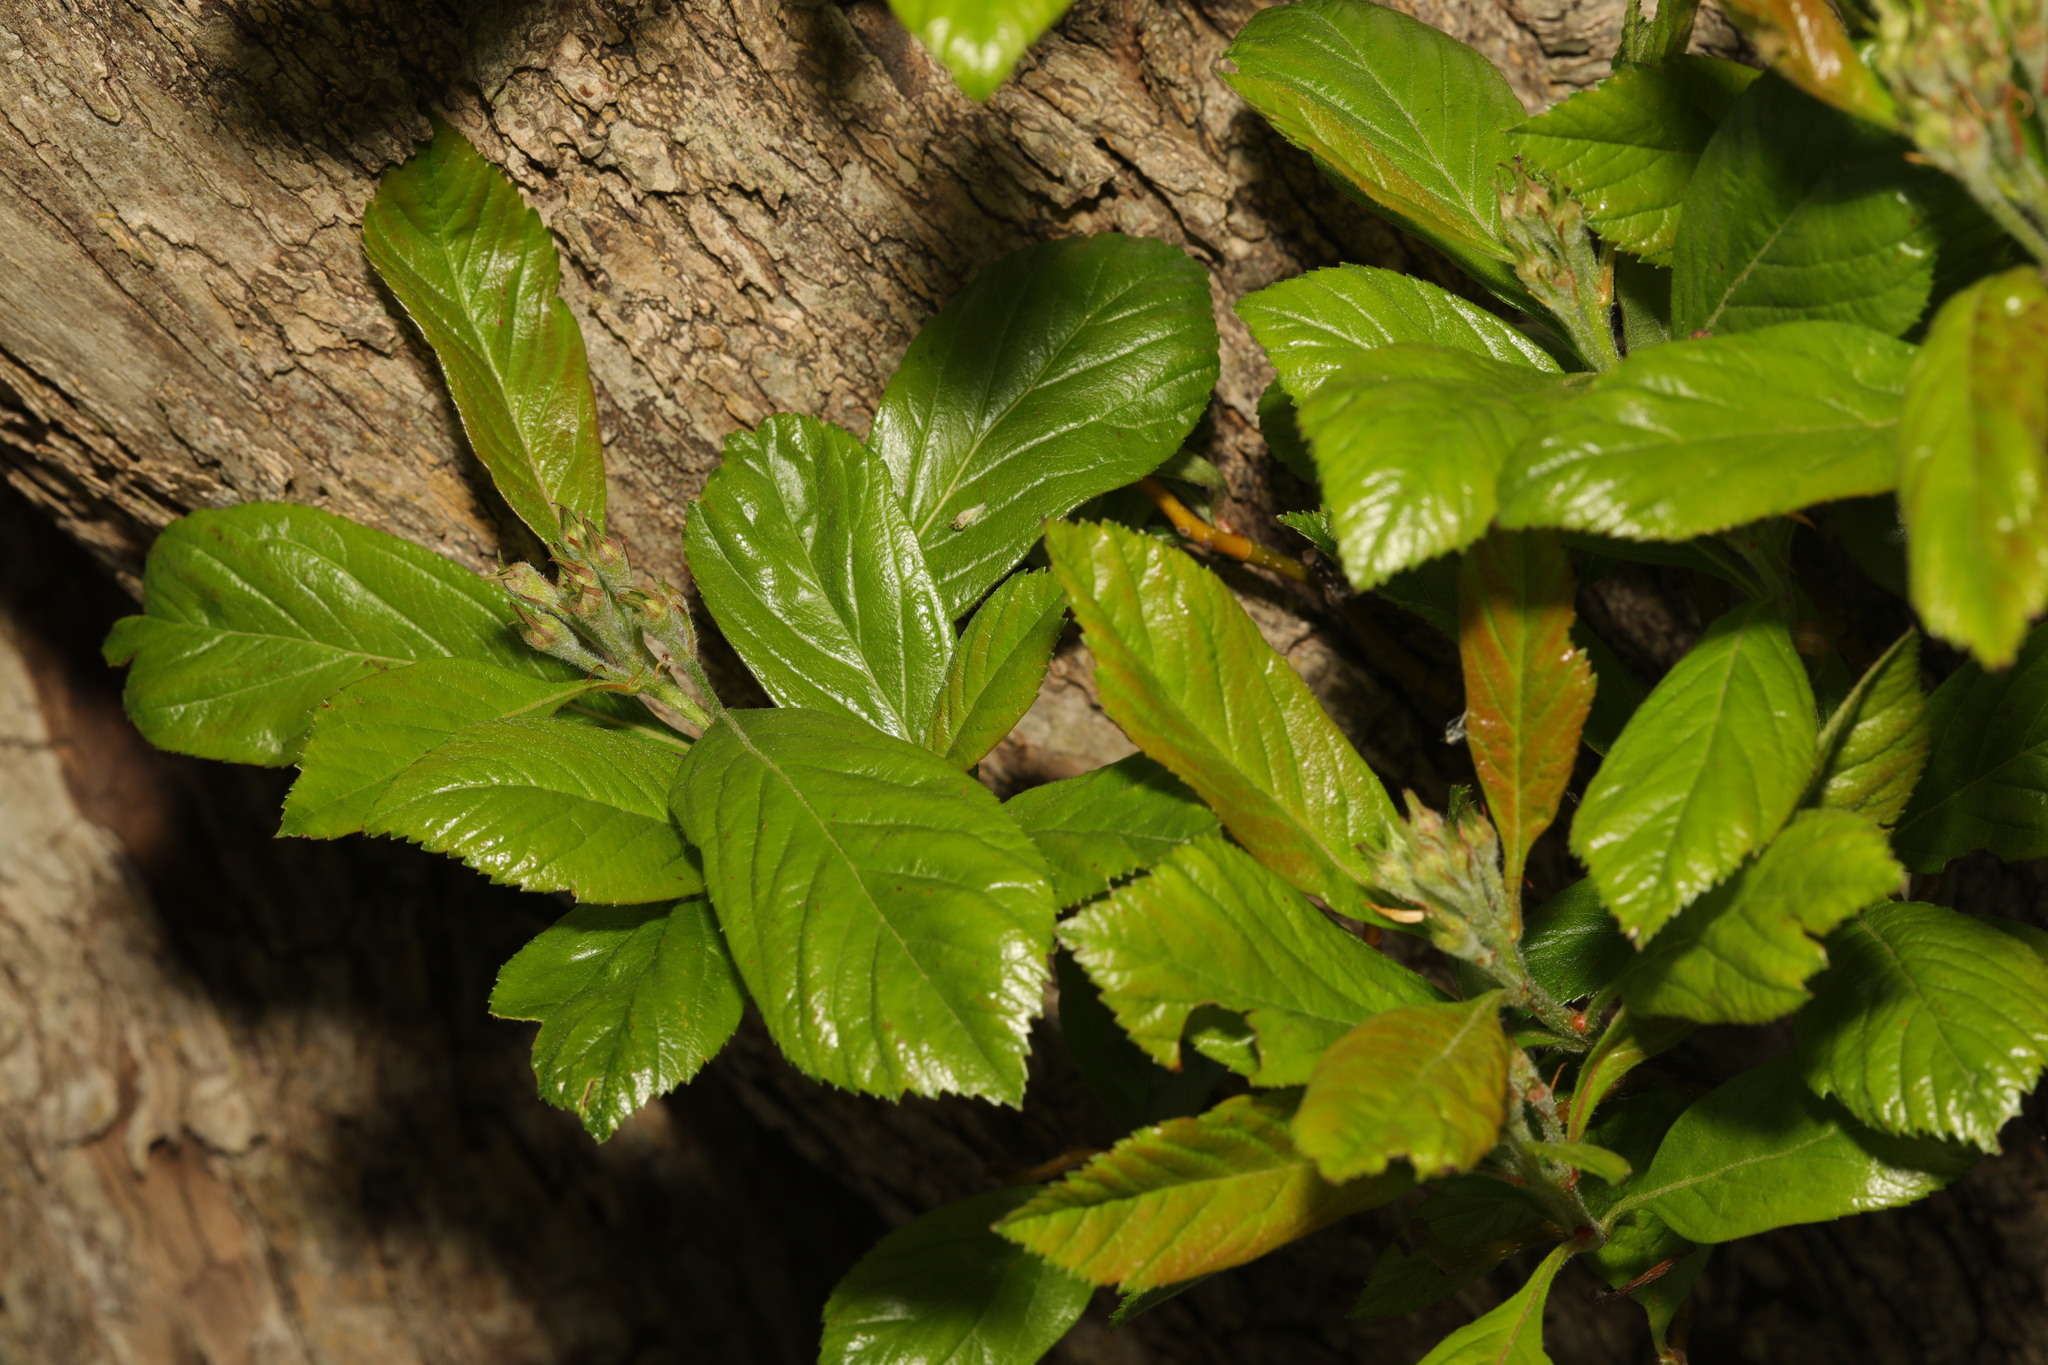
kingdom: Plantae
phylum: Tracheophyta
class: Magnoliopsida
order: Rosales
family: Rosaceae
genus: Rhaphiolepis
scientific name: Rhaphiolepis bibas
